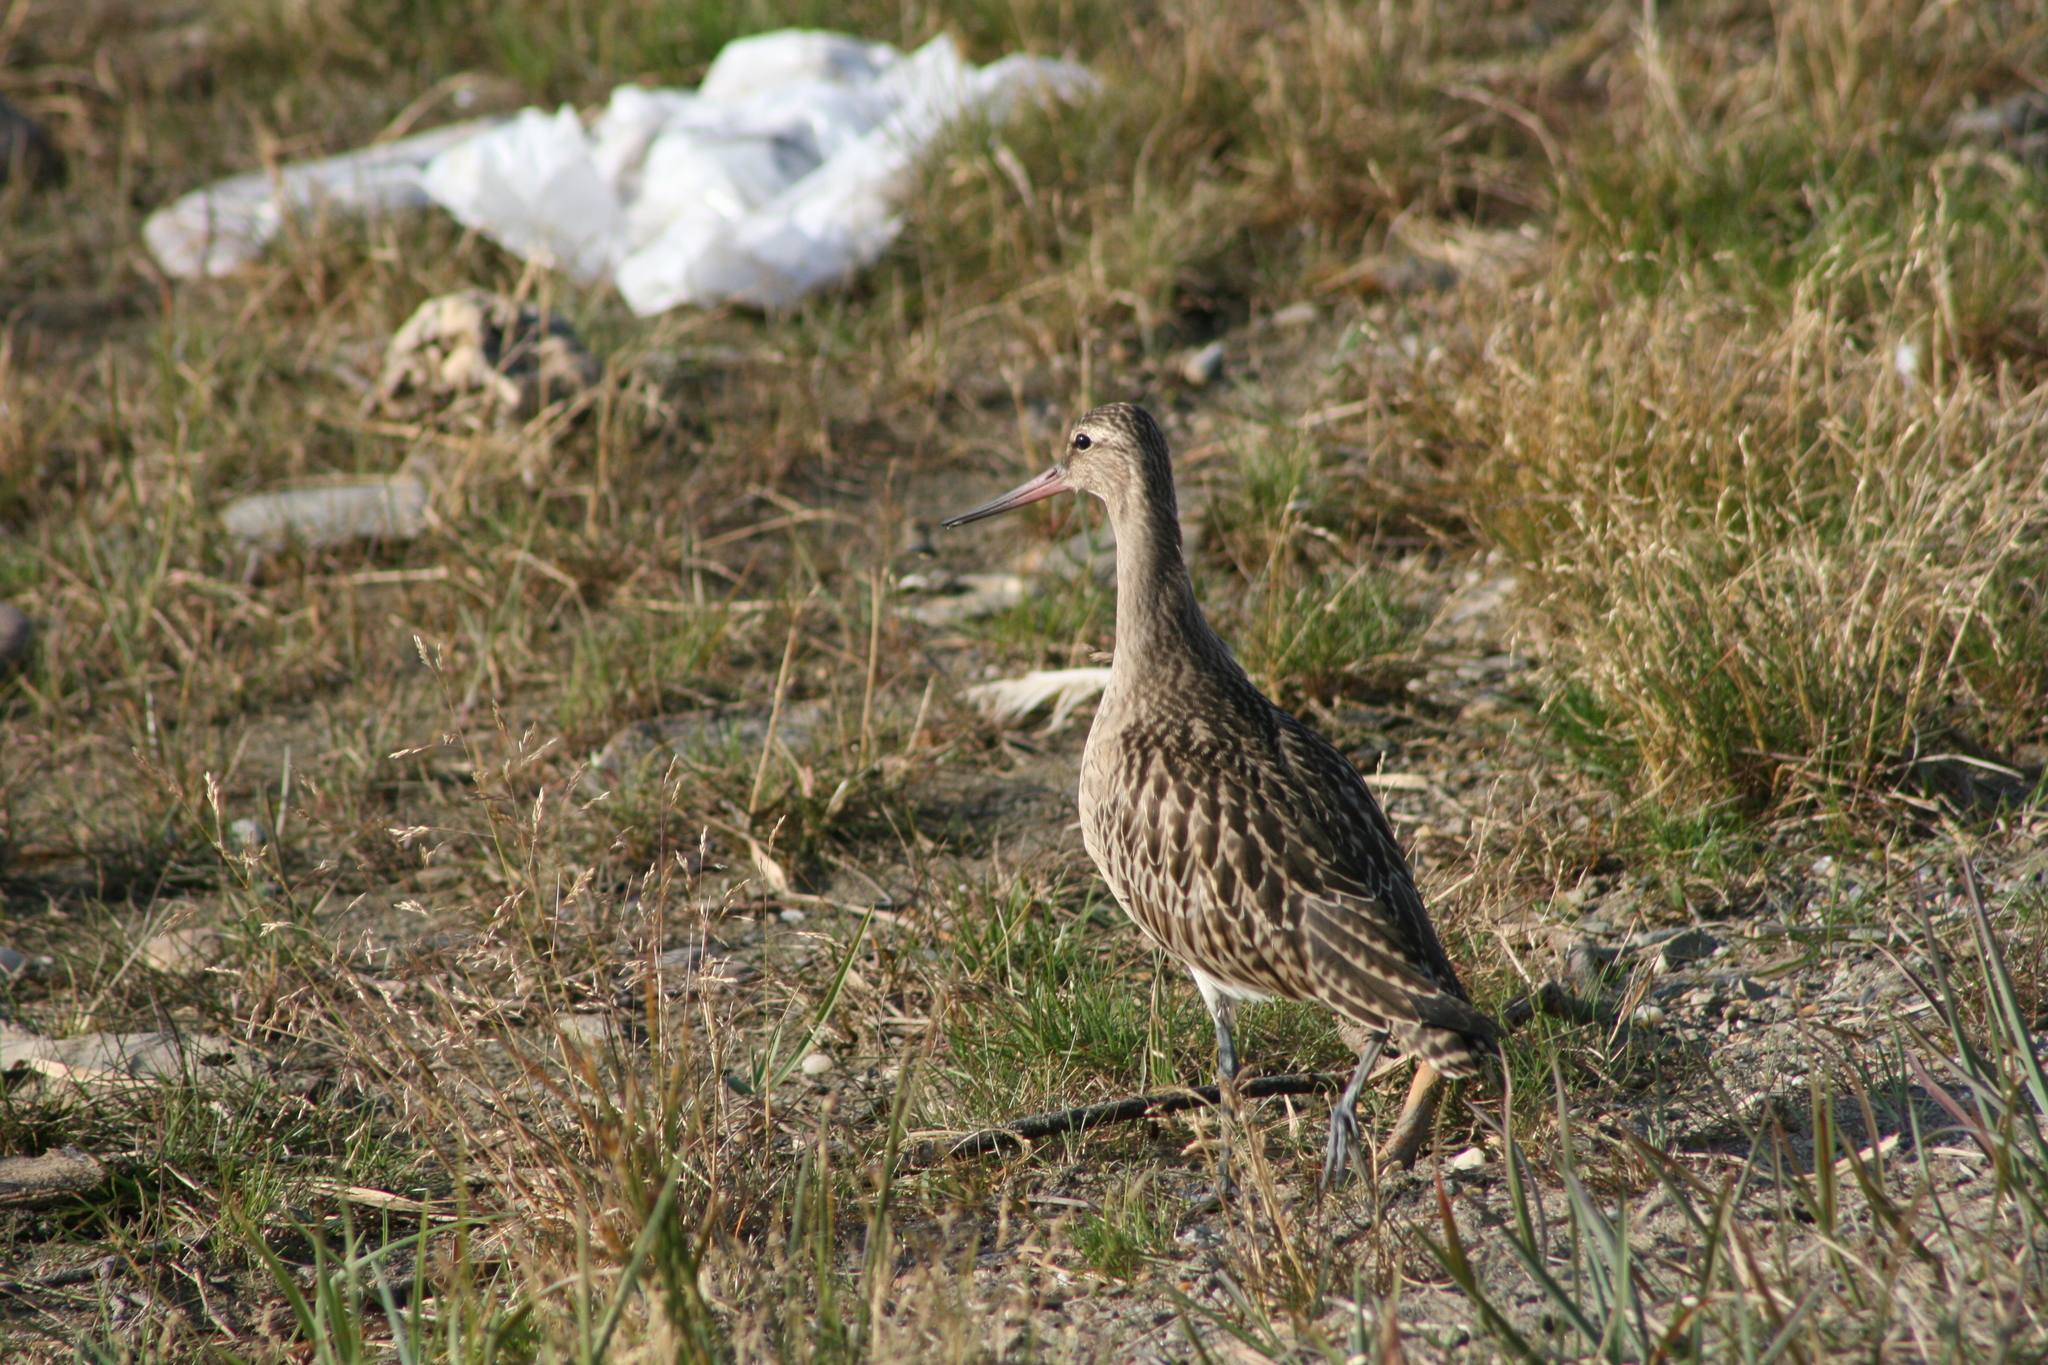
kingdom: Animalia
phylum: Chordata
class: Aves
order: Charadriiformes
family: Scolopacidae
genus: Limosa
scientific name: Limosa lapponica
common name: Bar-tailed godwit
